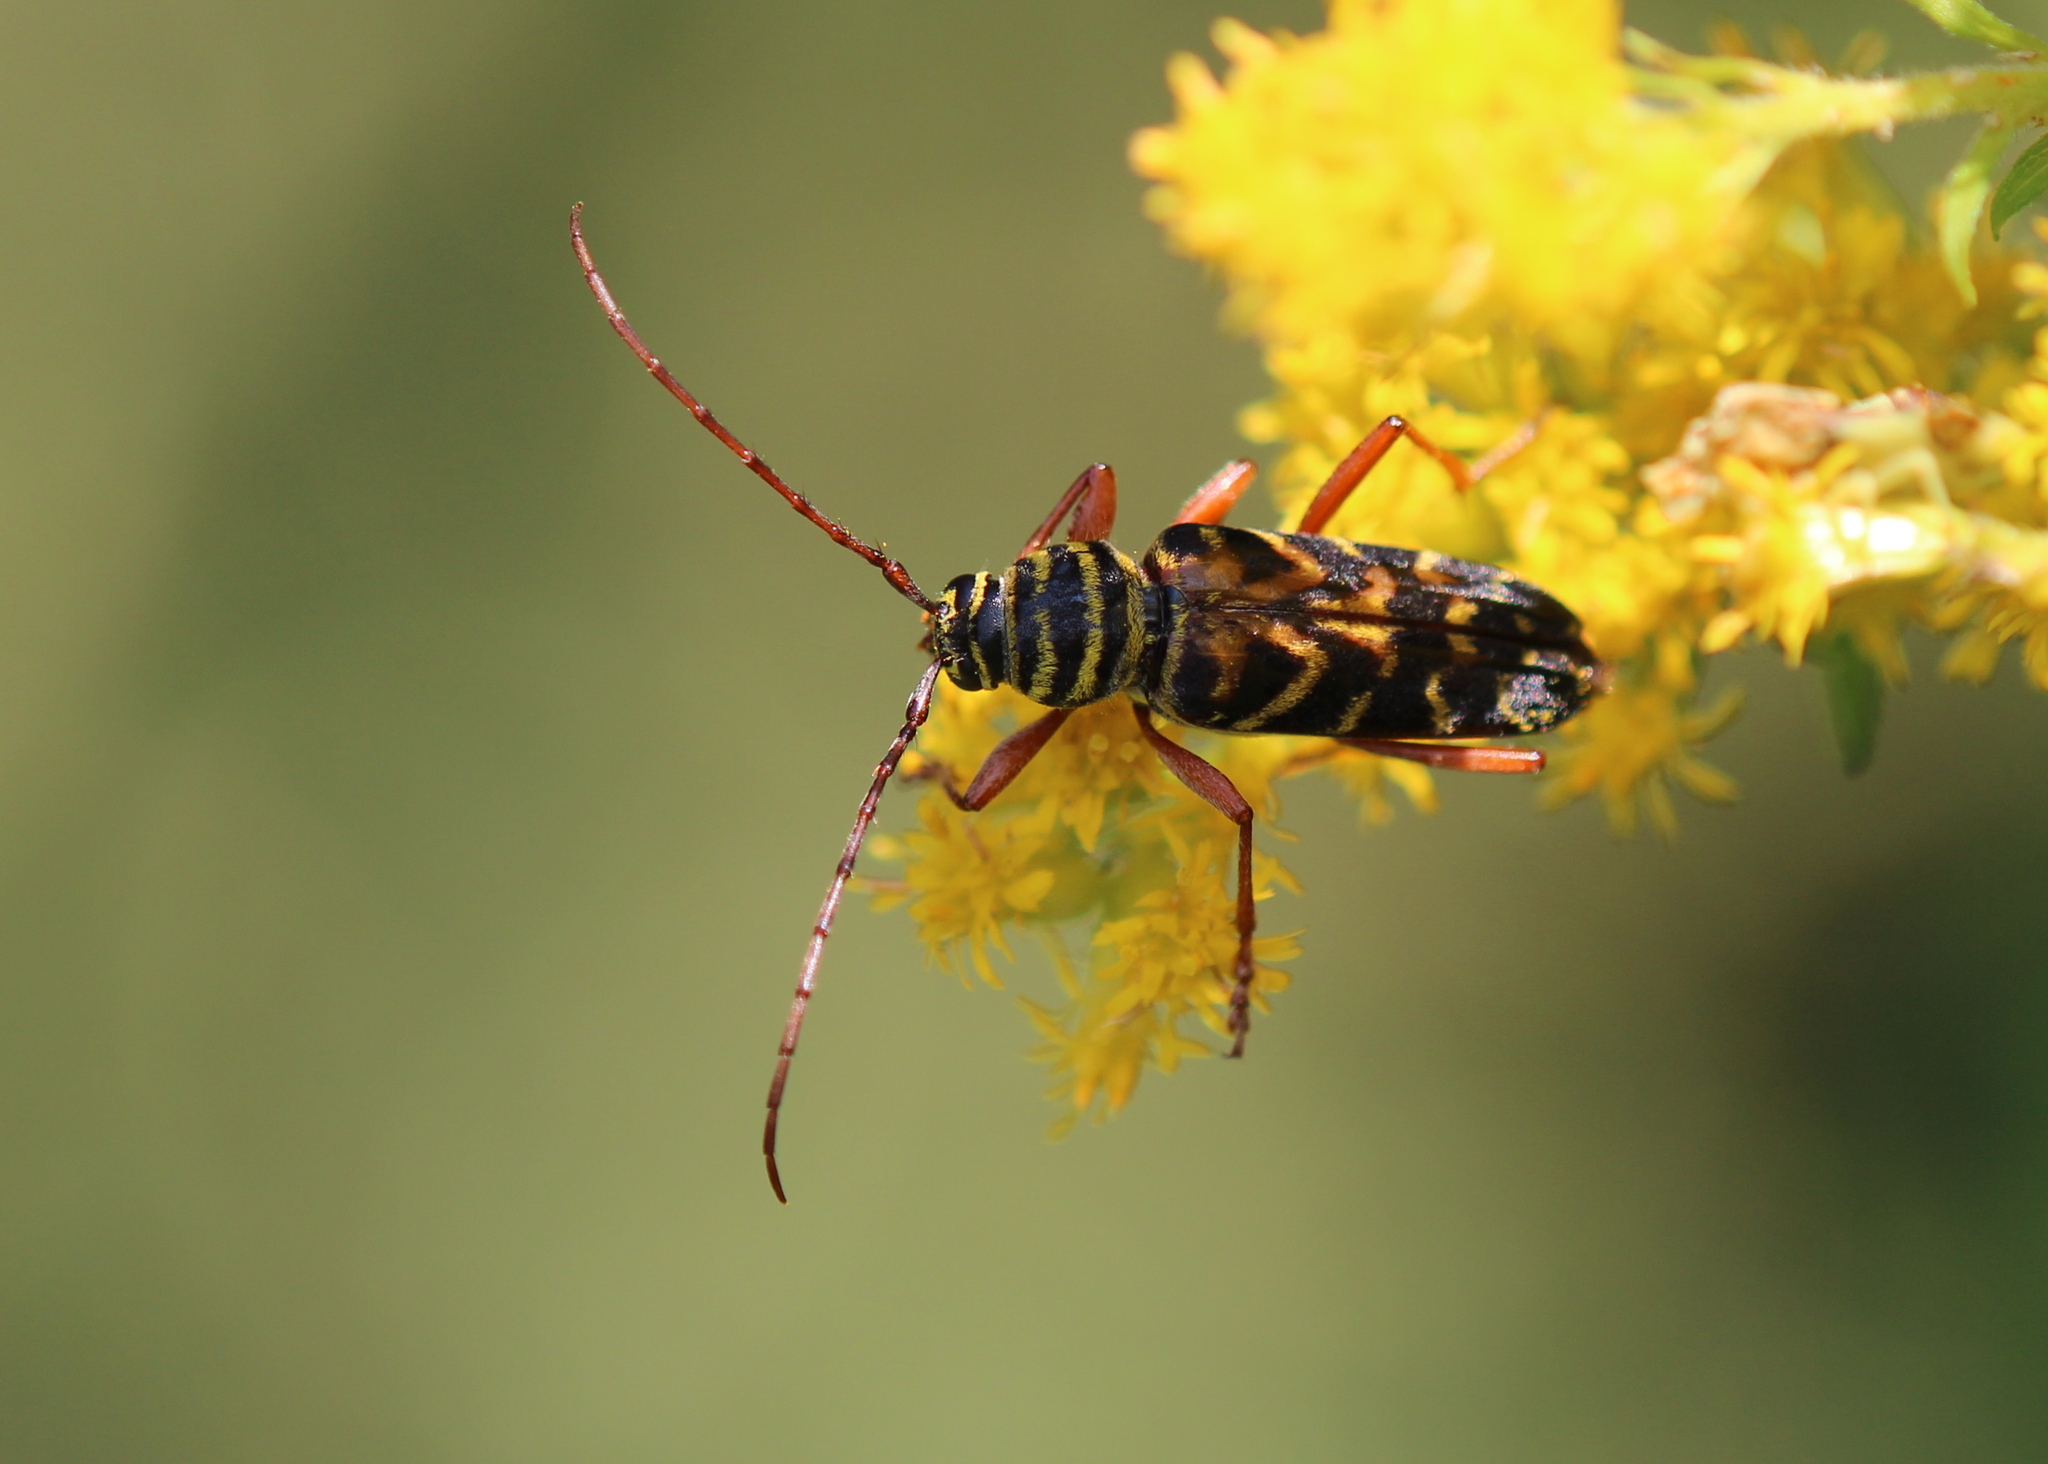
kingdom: Animalia
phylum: Arthropoda
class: Insecta
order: Coleoptera
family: Cerambycidae
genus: Megacyllene
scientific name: Megacyllene robiniae
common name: Locust borer
